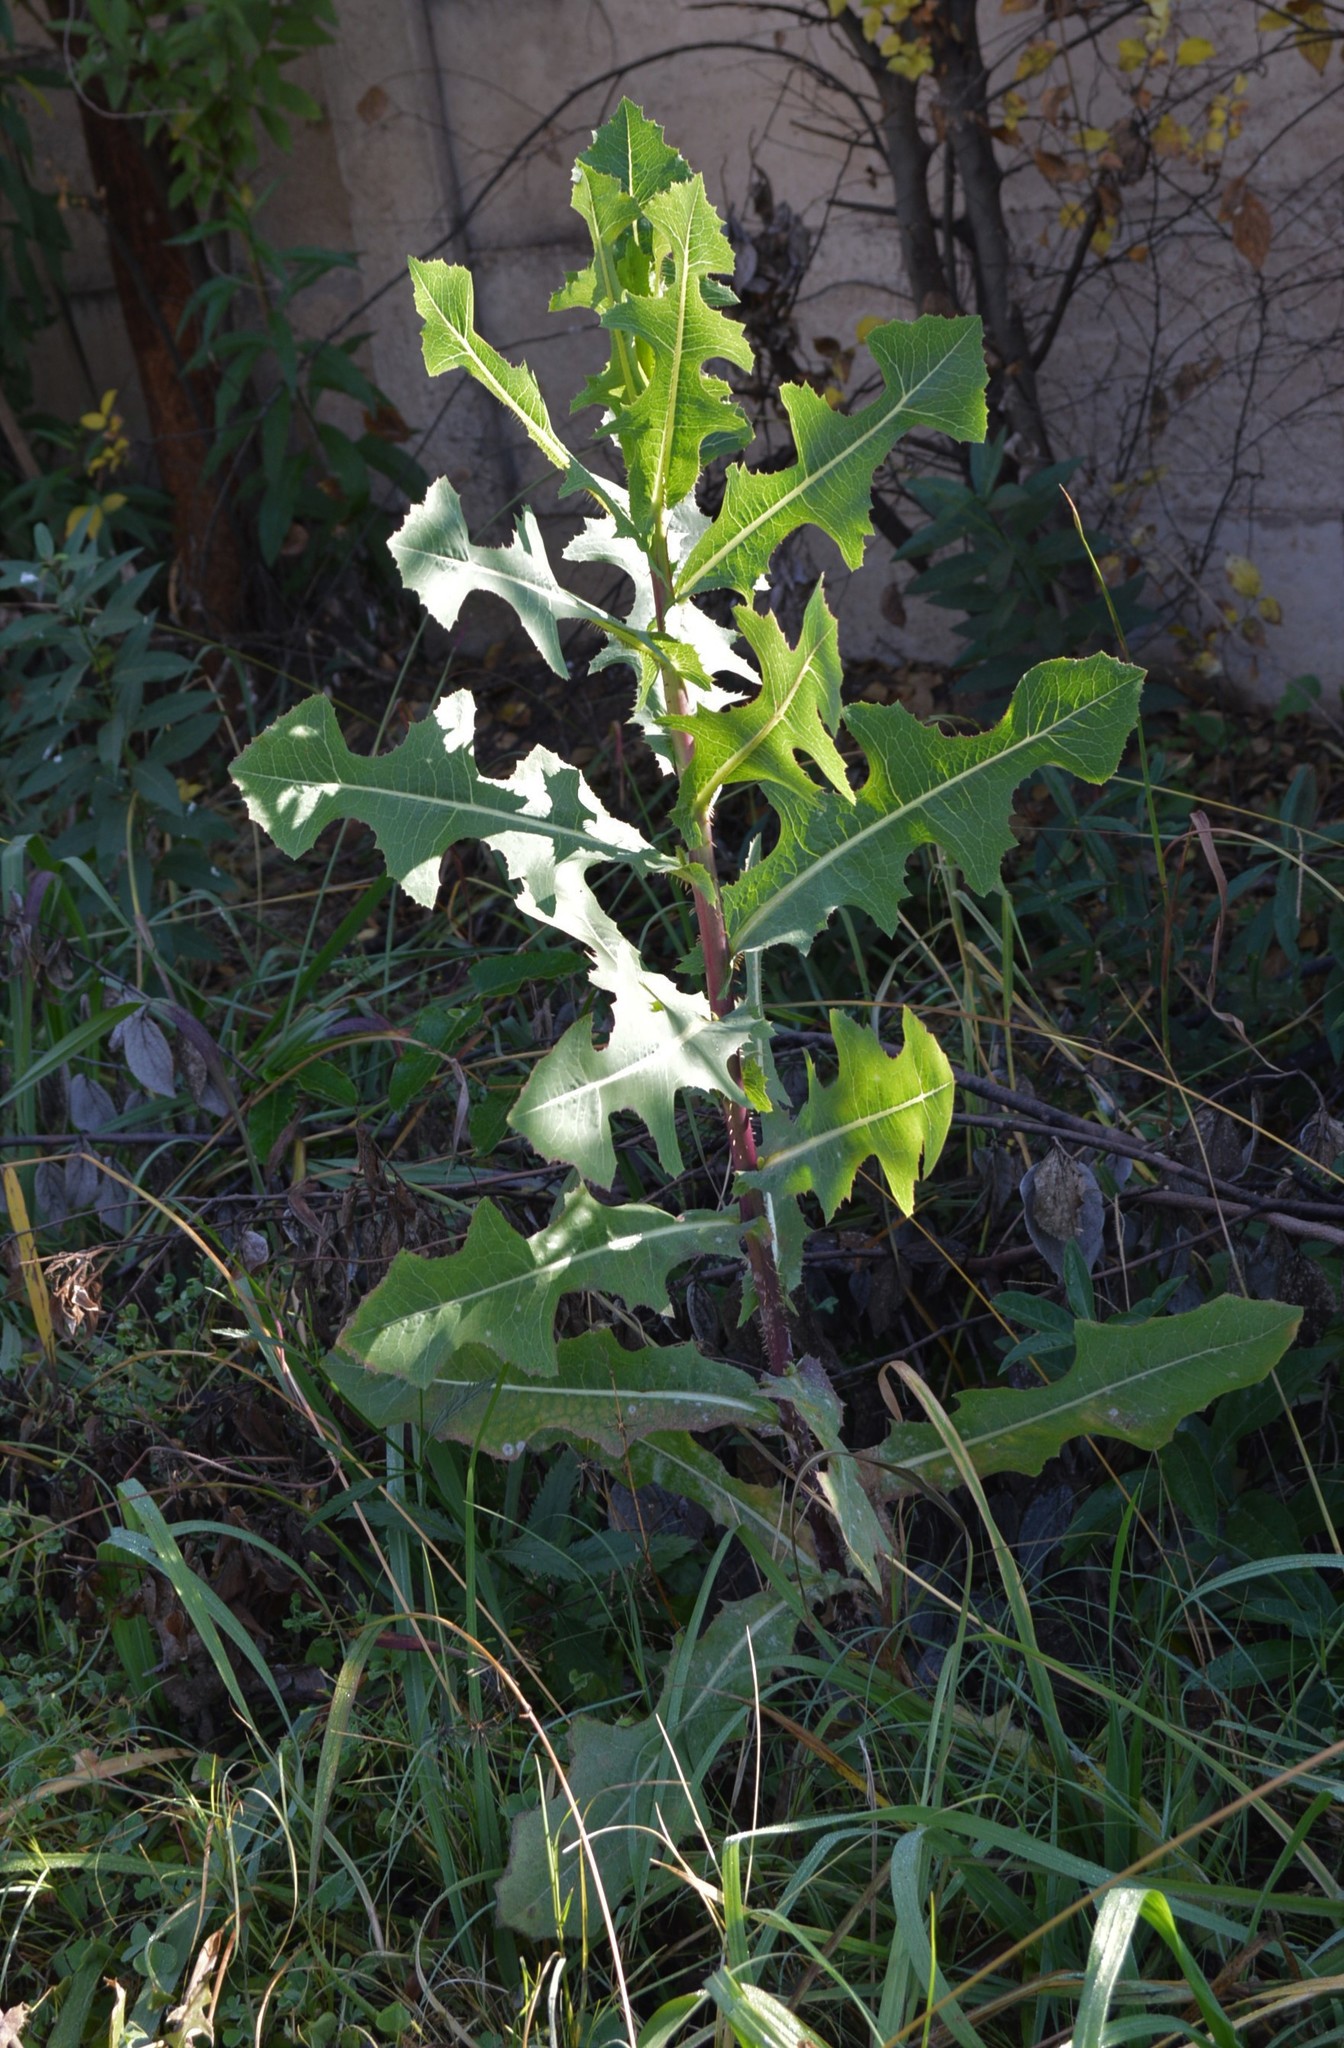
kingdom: Plantae
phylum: Tracheophyta
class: Magnoliopsida
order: Asterales
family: Asteraceae
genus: Lactuca
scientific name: Lactuca serriola
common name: Prickly lettuce
